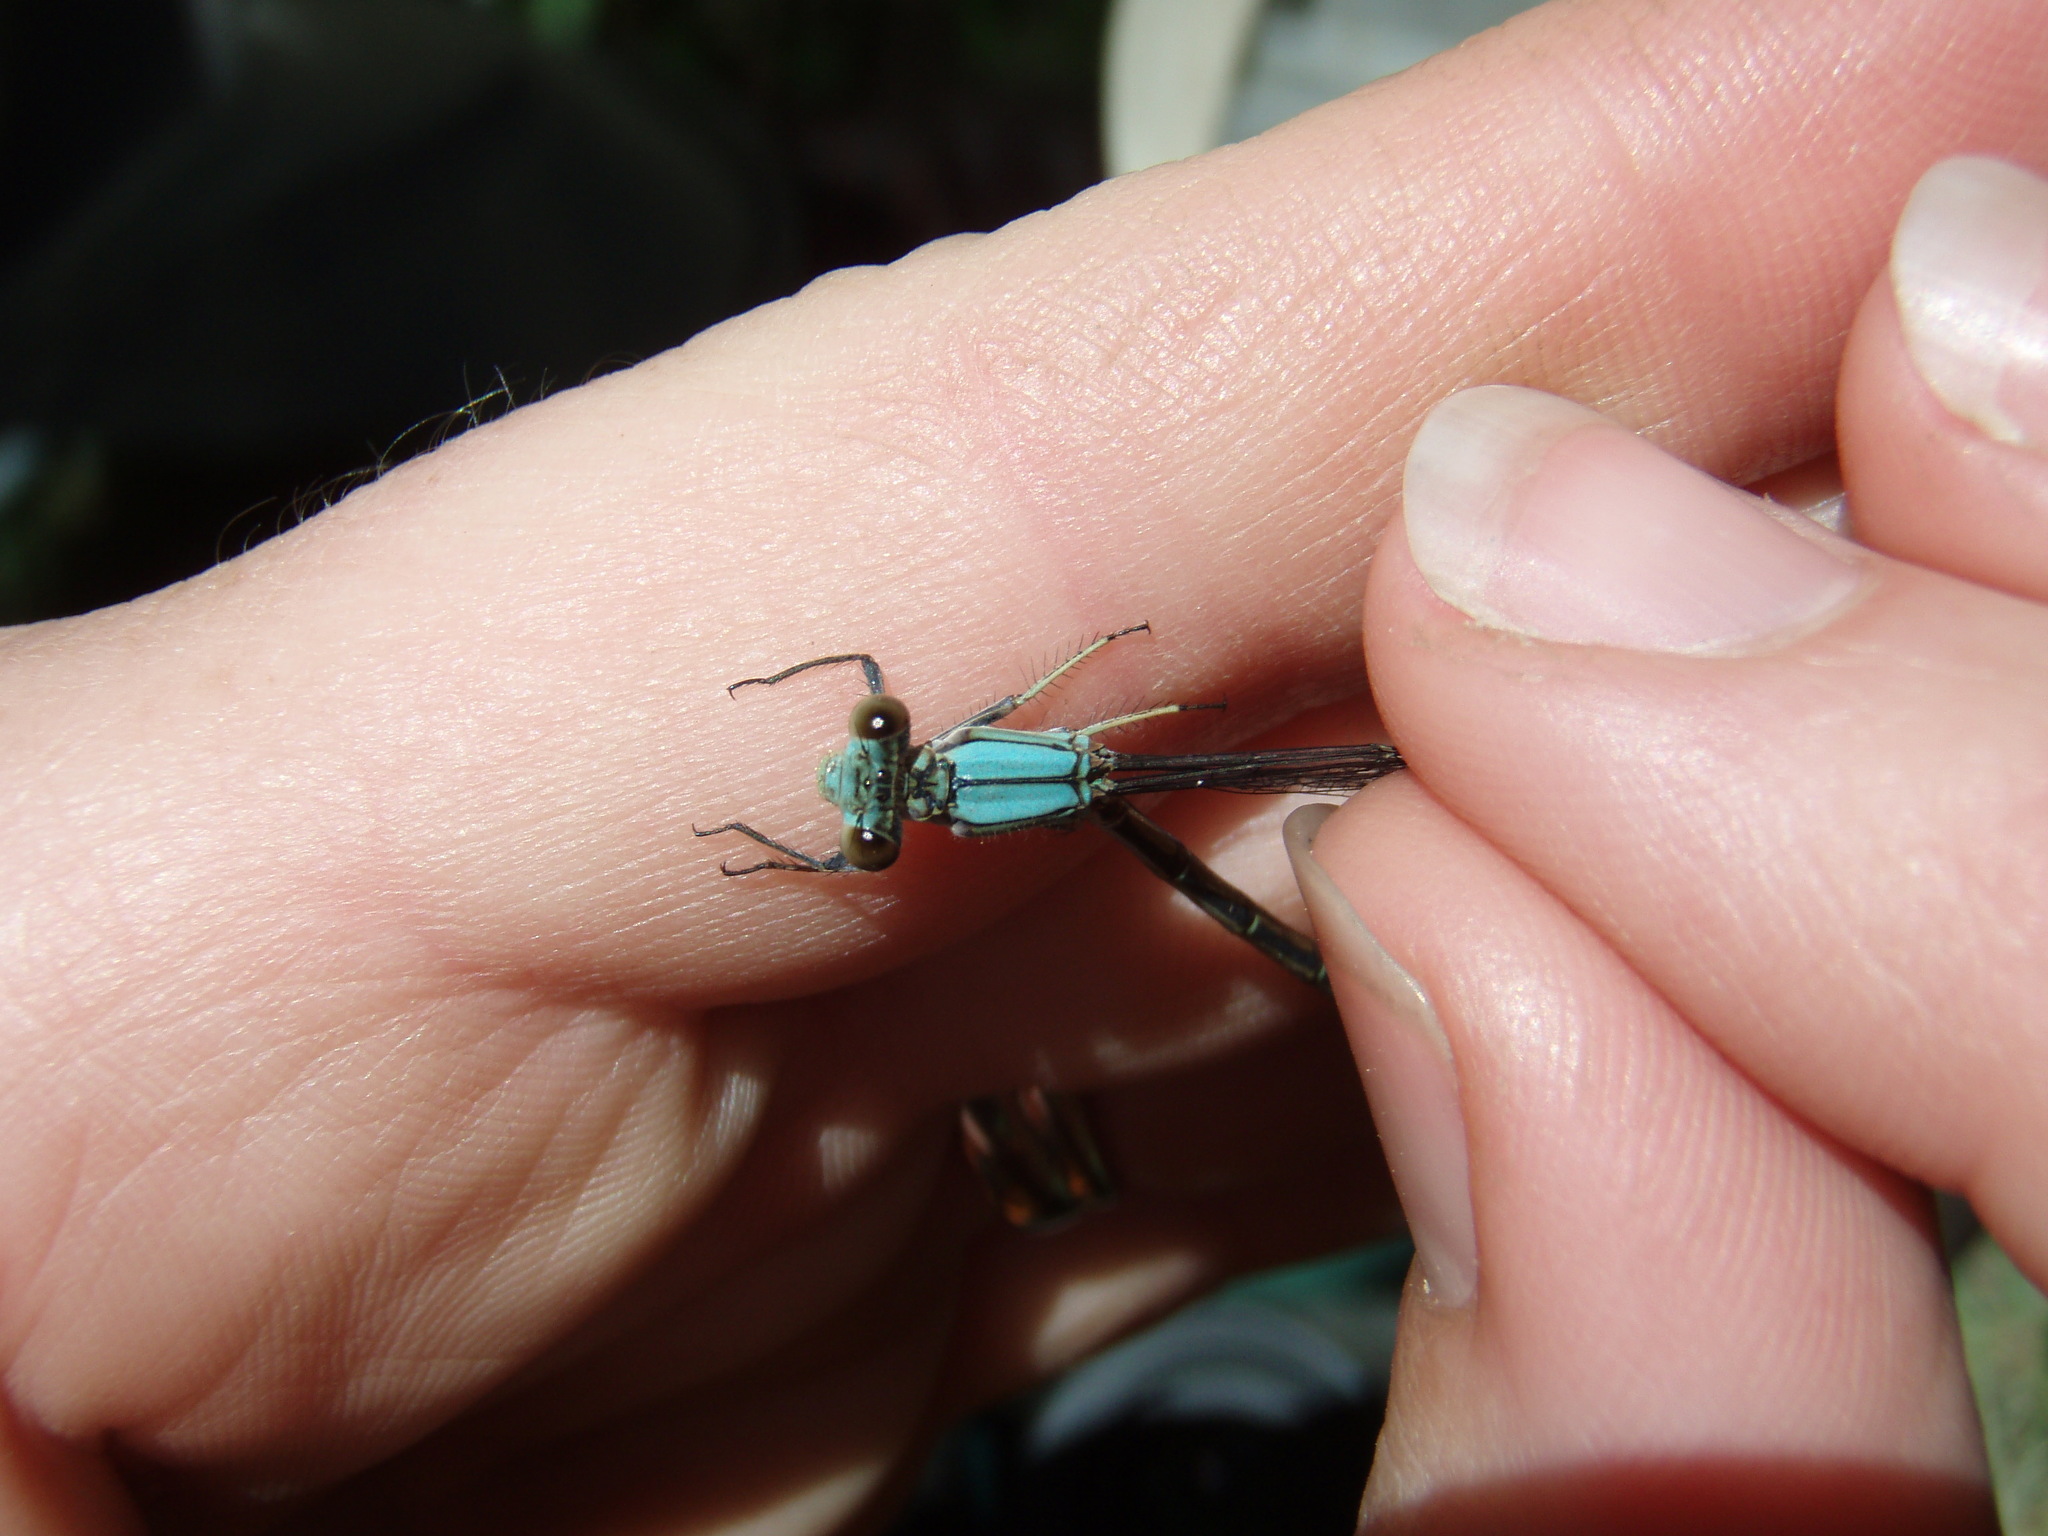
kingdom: Animalia
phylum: Arthropoda
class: Insecta
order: Odonata
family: Coenagrionidae
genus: Argia
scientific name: Argia
